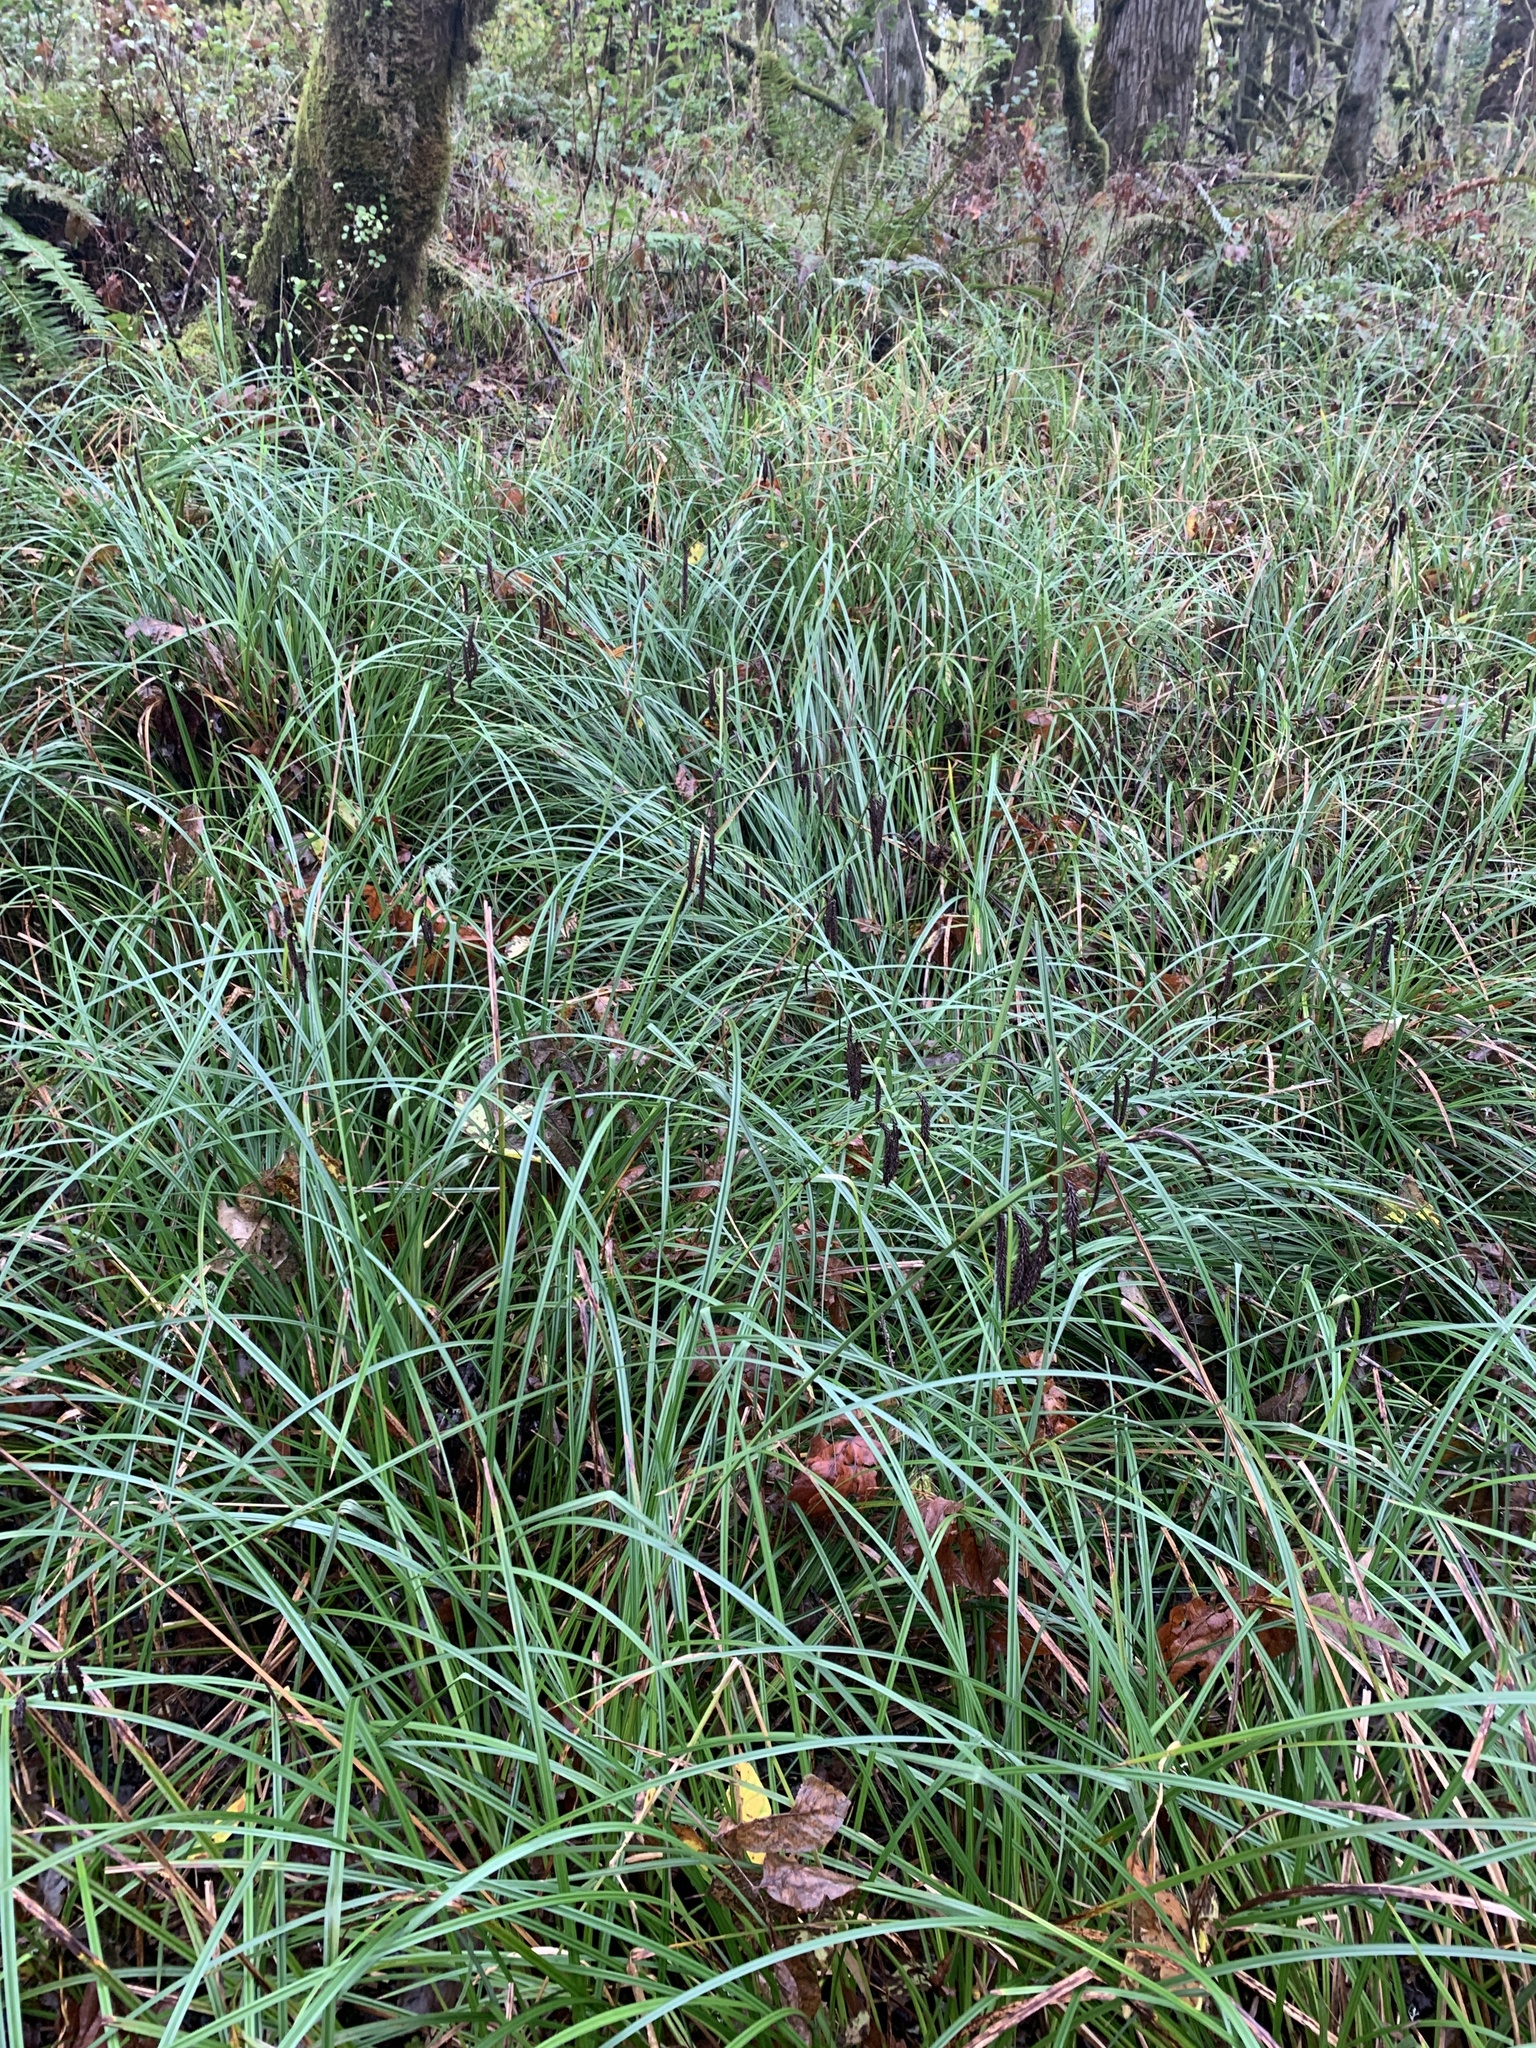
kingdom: Plantae
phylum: Tracheophyta
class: Liliopsida
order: Poales
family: Cyperaceae
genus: Carex
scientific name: Carex obnupta
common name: Slough sedge
